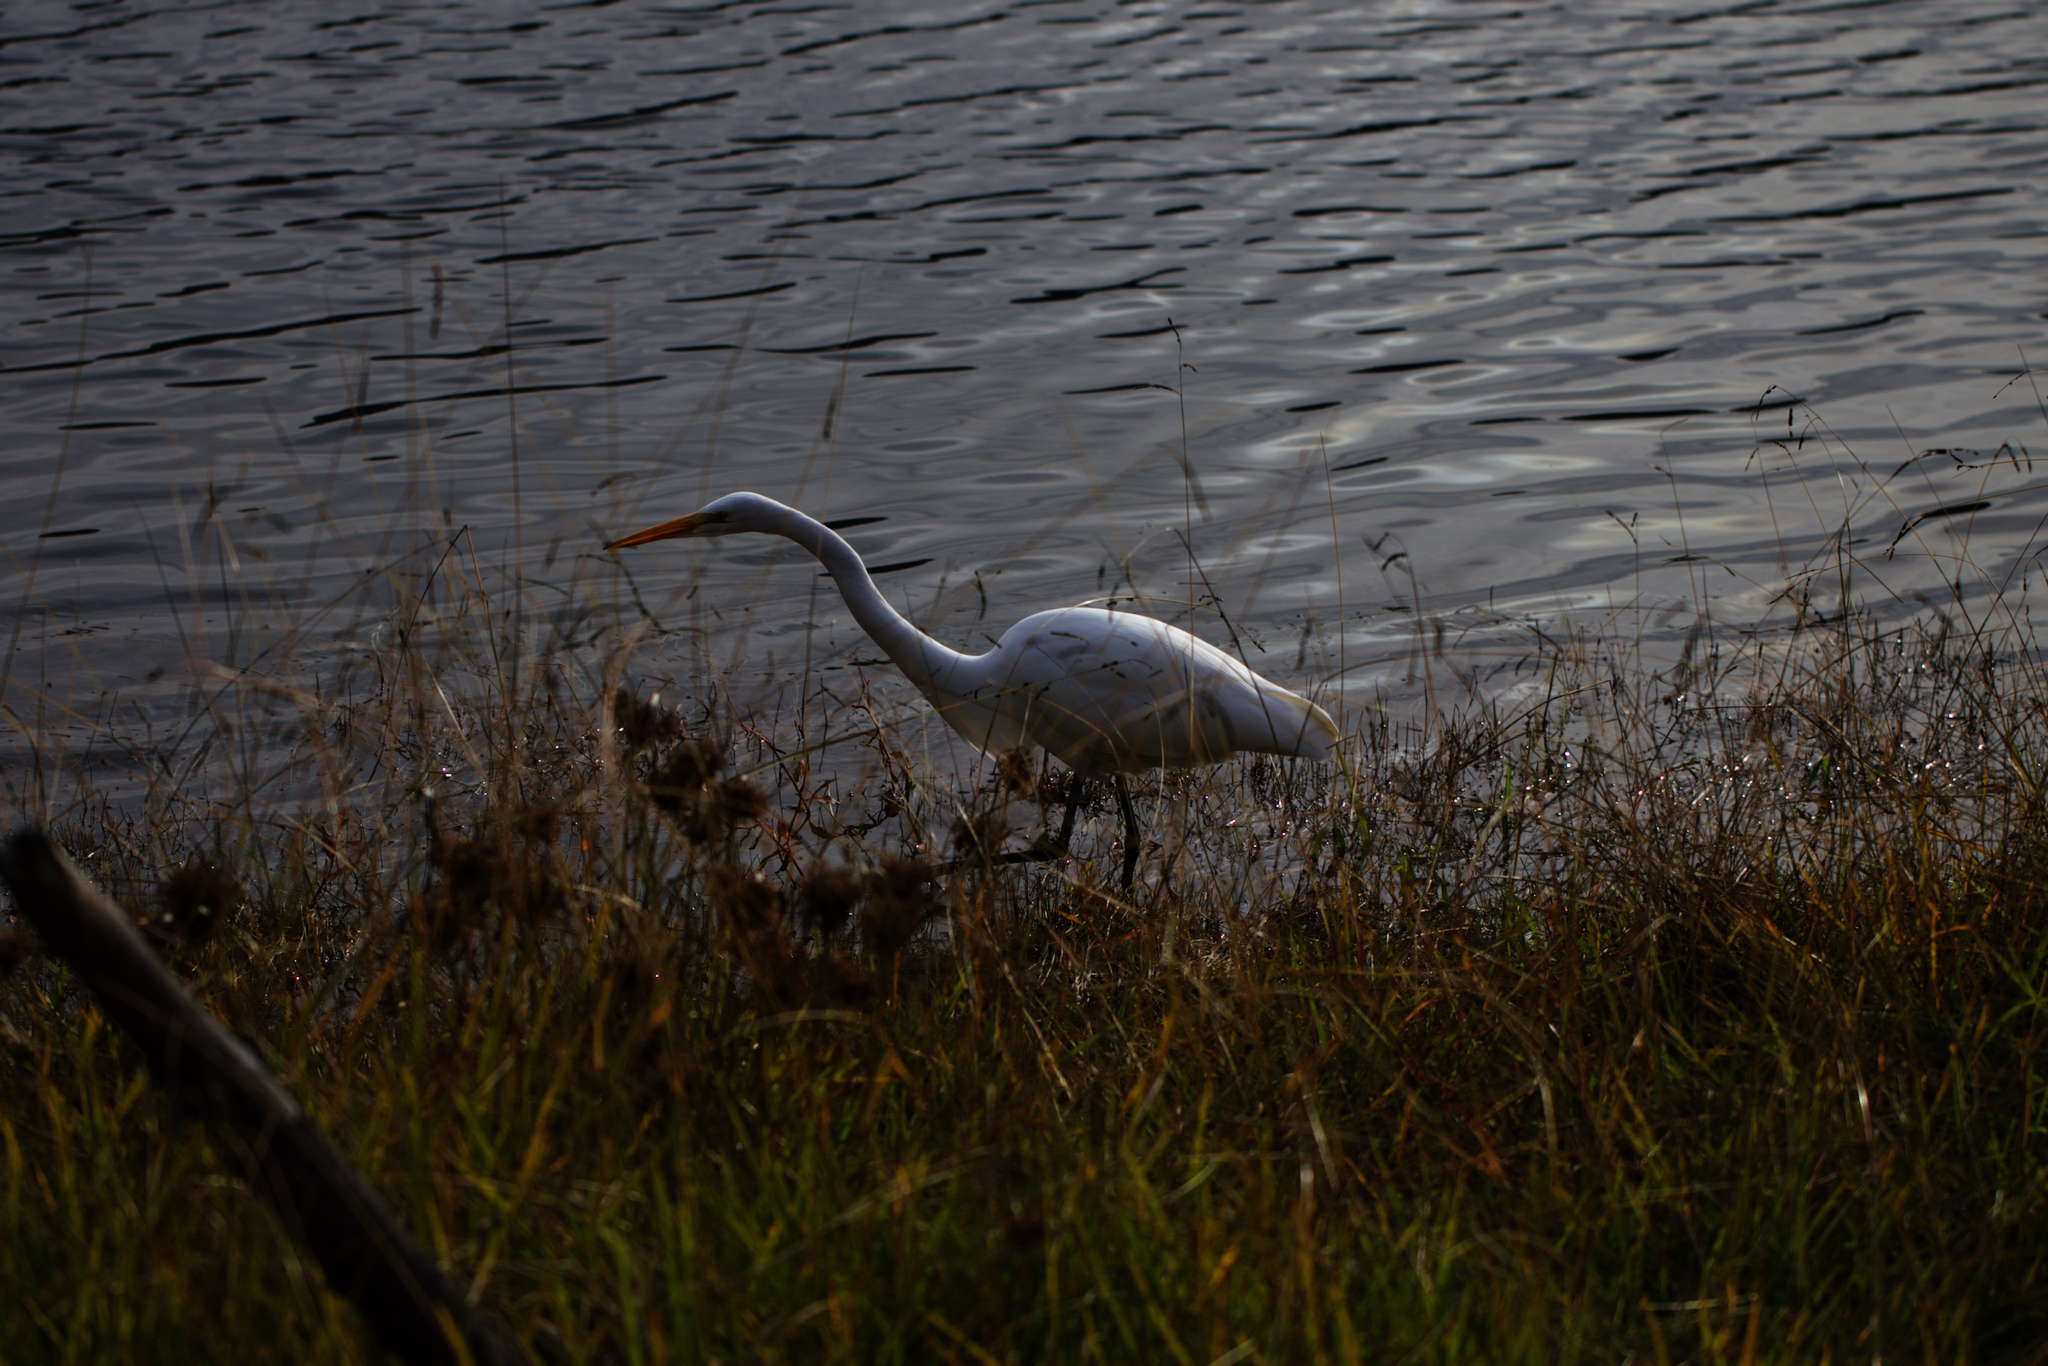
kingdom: Animalia
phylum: Chordata
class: Aves
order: Pelecaniformes
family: Ardeidae
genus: Ardea
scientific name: Ardea alba
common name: Great egret
